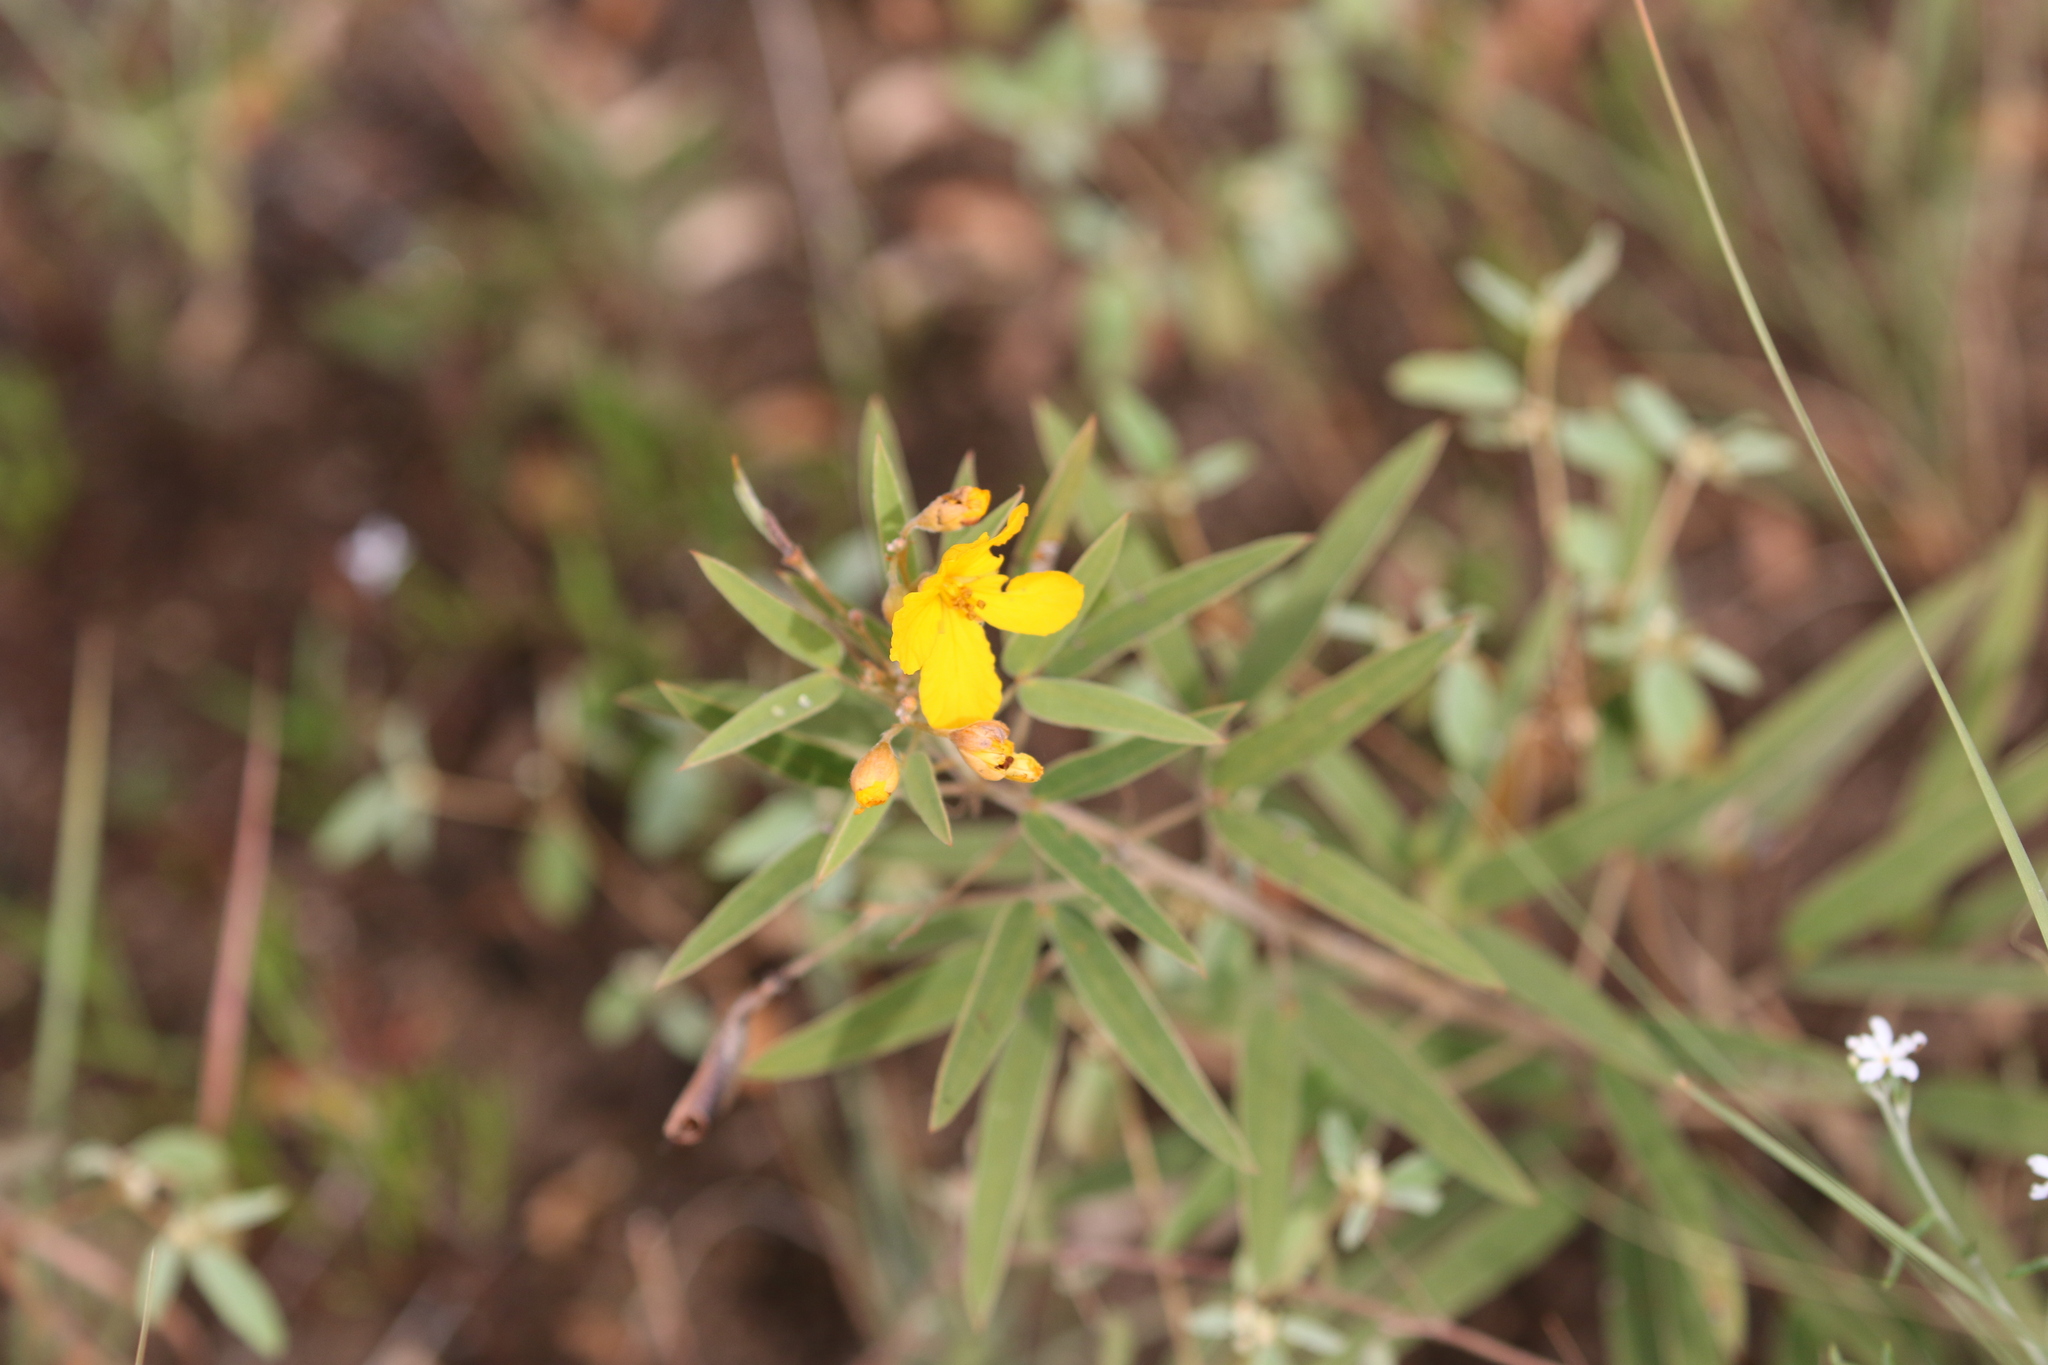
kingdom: Plantae
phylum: Tracheophyta
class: Magnoliopsida
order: Fabales
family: Fabaceae
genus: Senna
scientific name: Senna roemeriana
